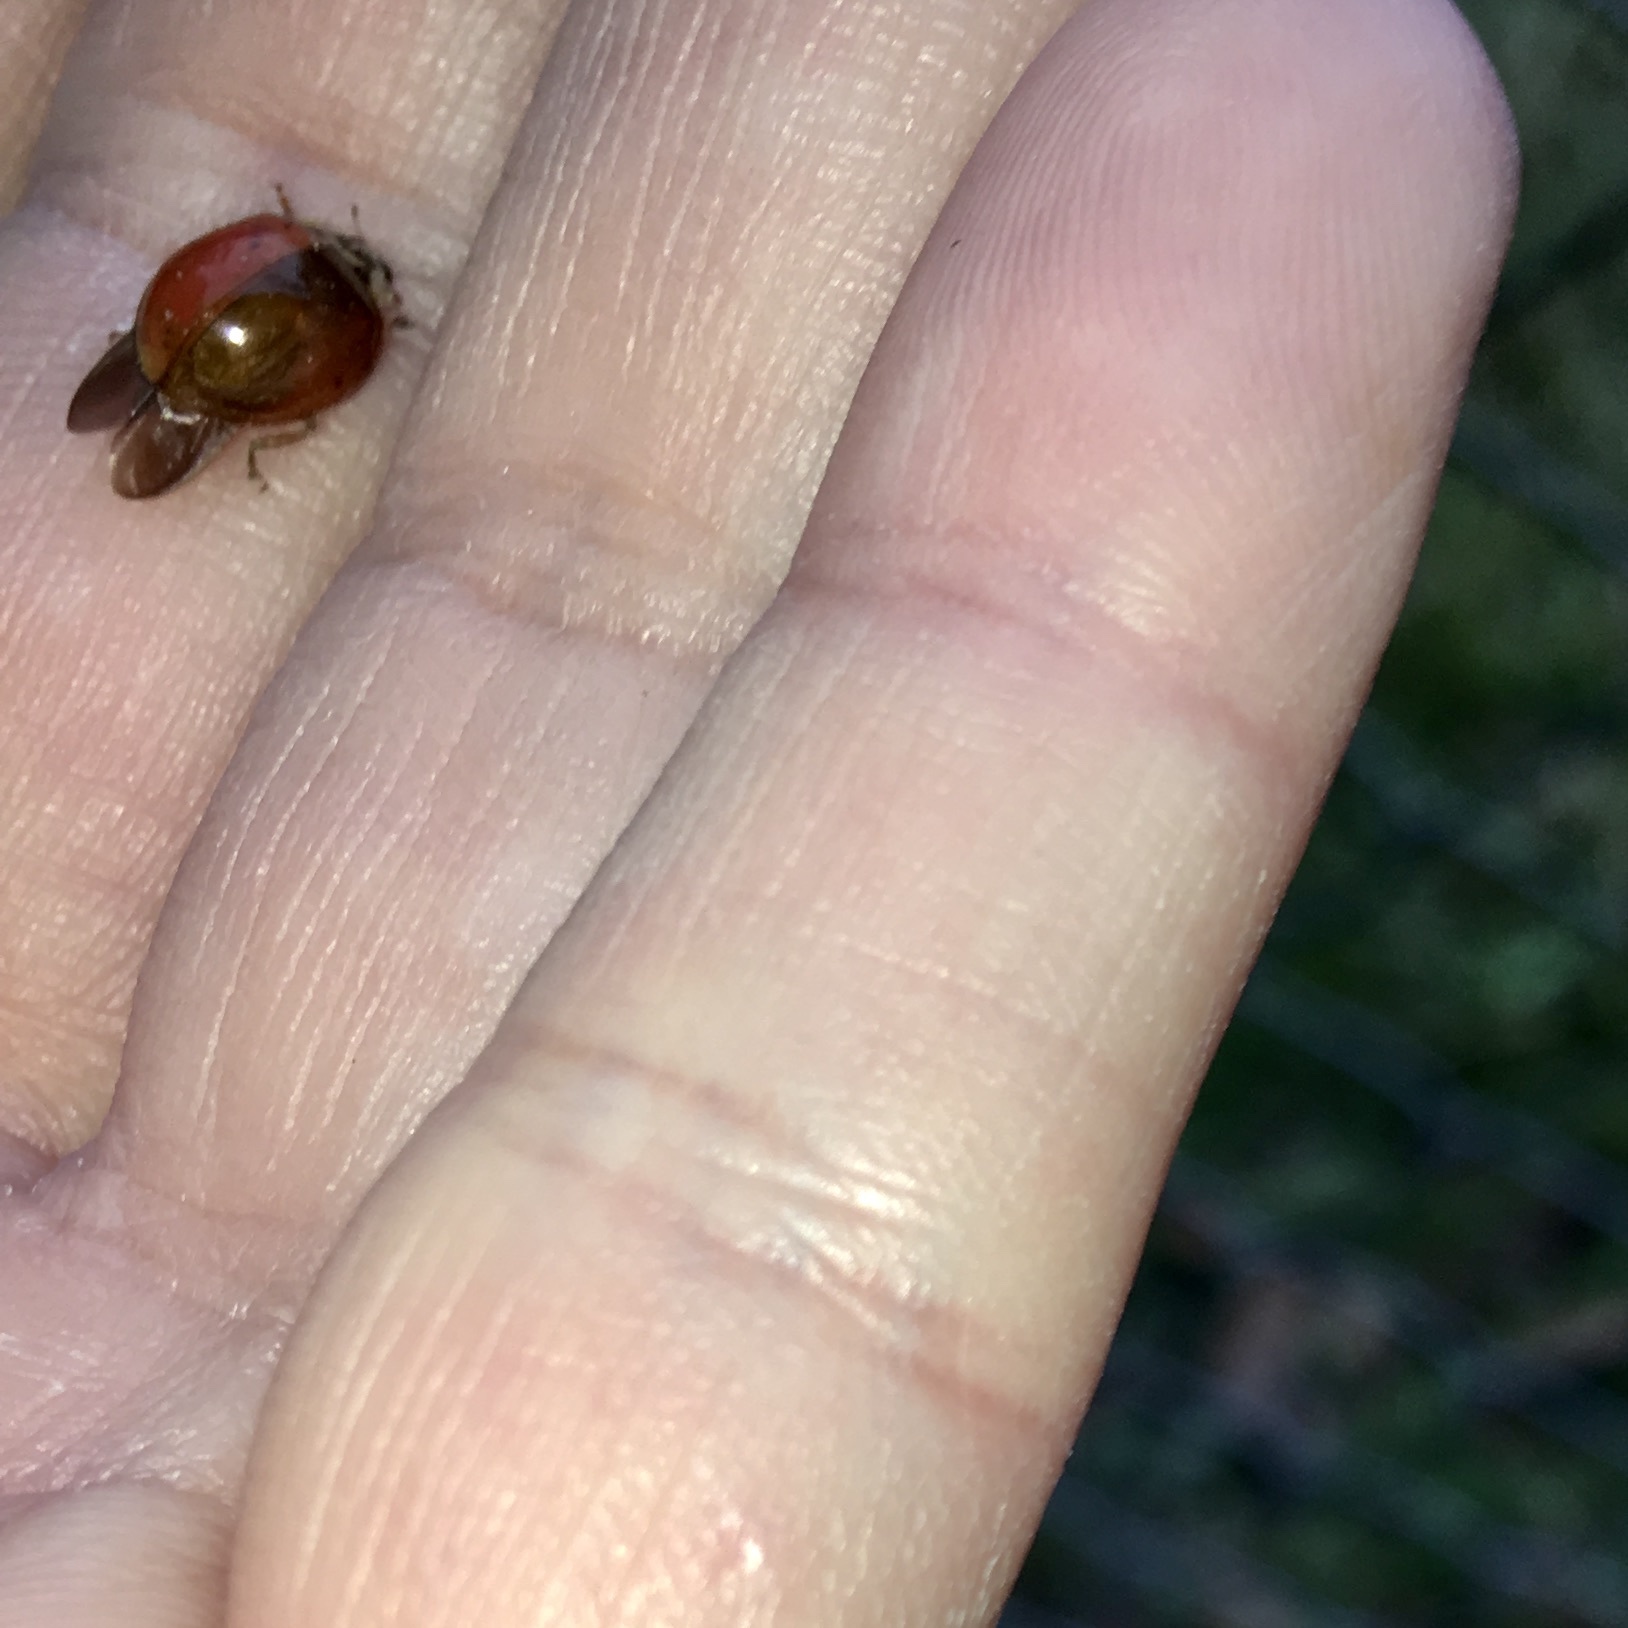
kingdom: Animalia
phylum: Arthropoda
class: Insecta
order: Coleoptera
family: Coccinellidae
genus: Harmonia
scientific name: Harmonia axyridis
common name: Harlequin ladybird
